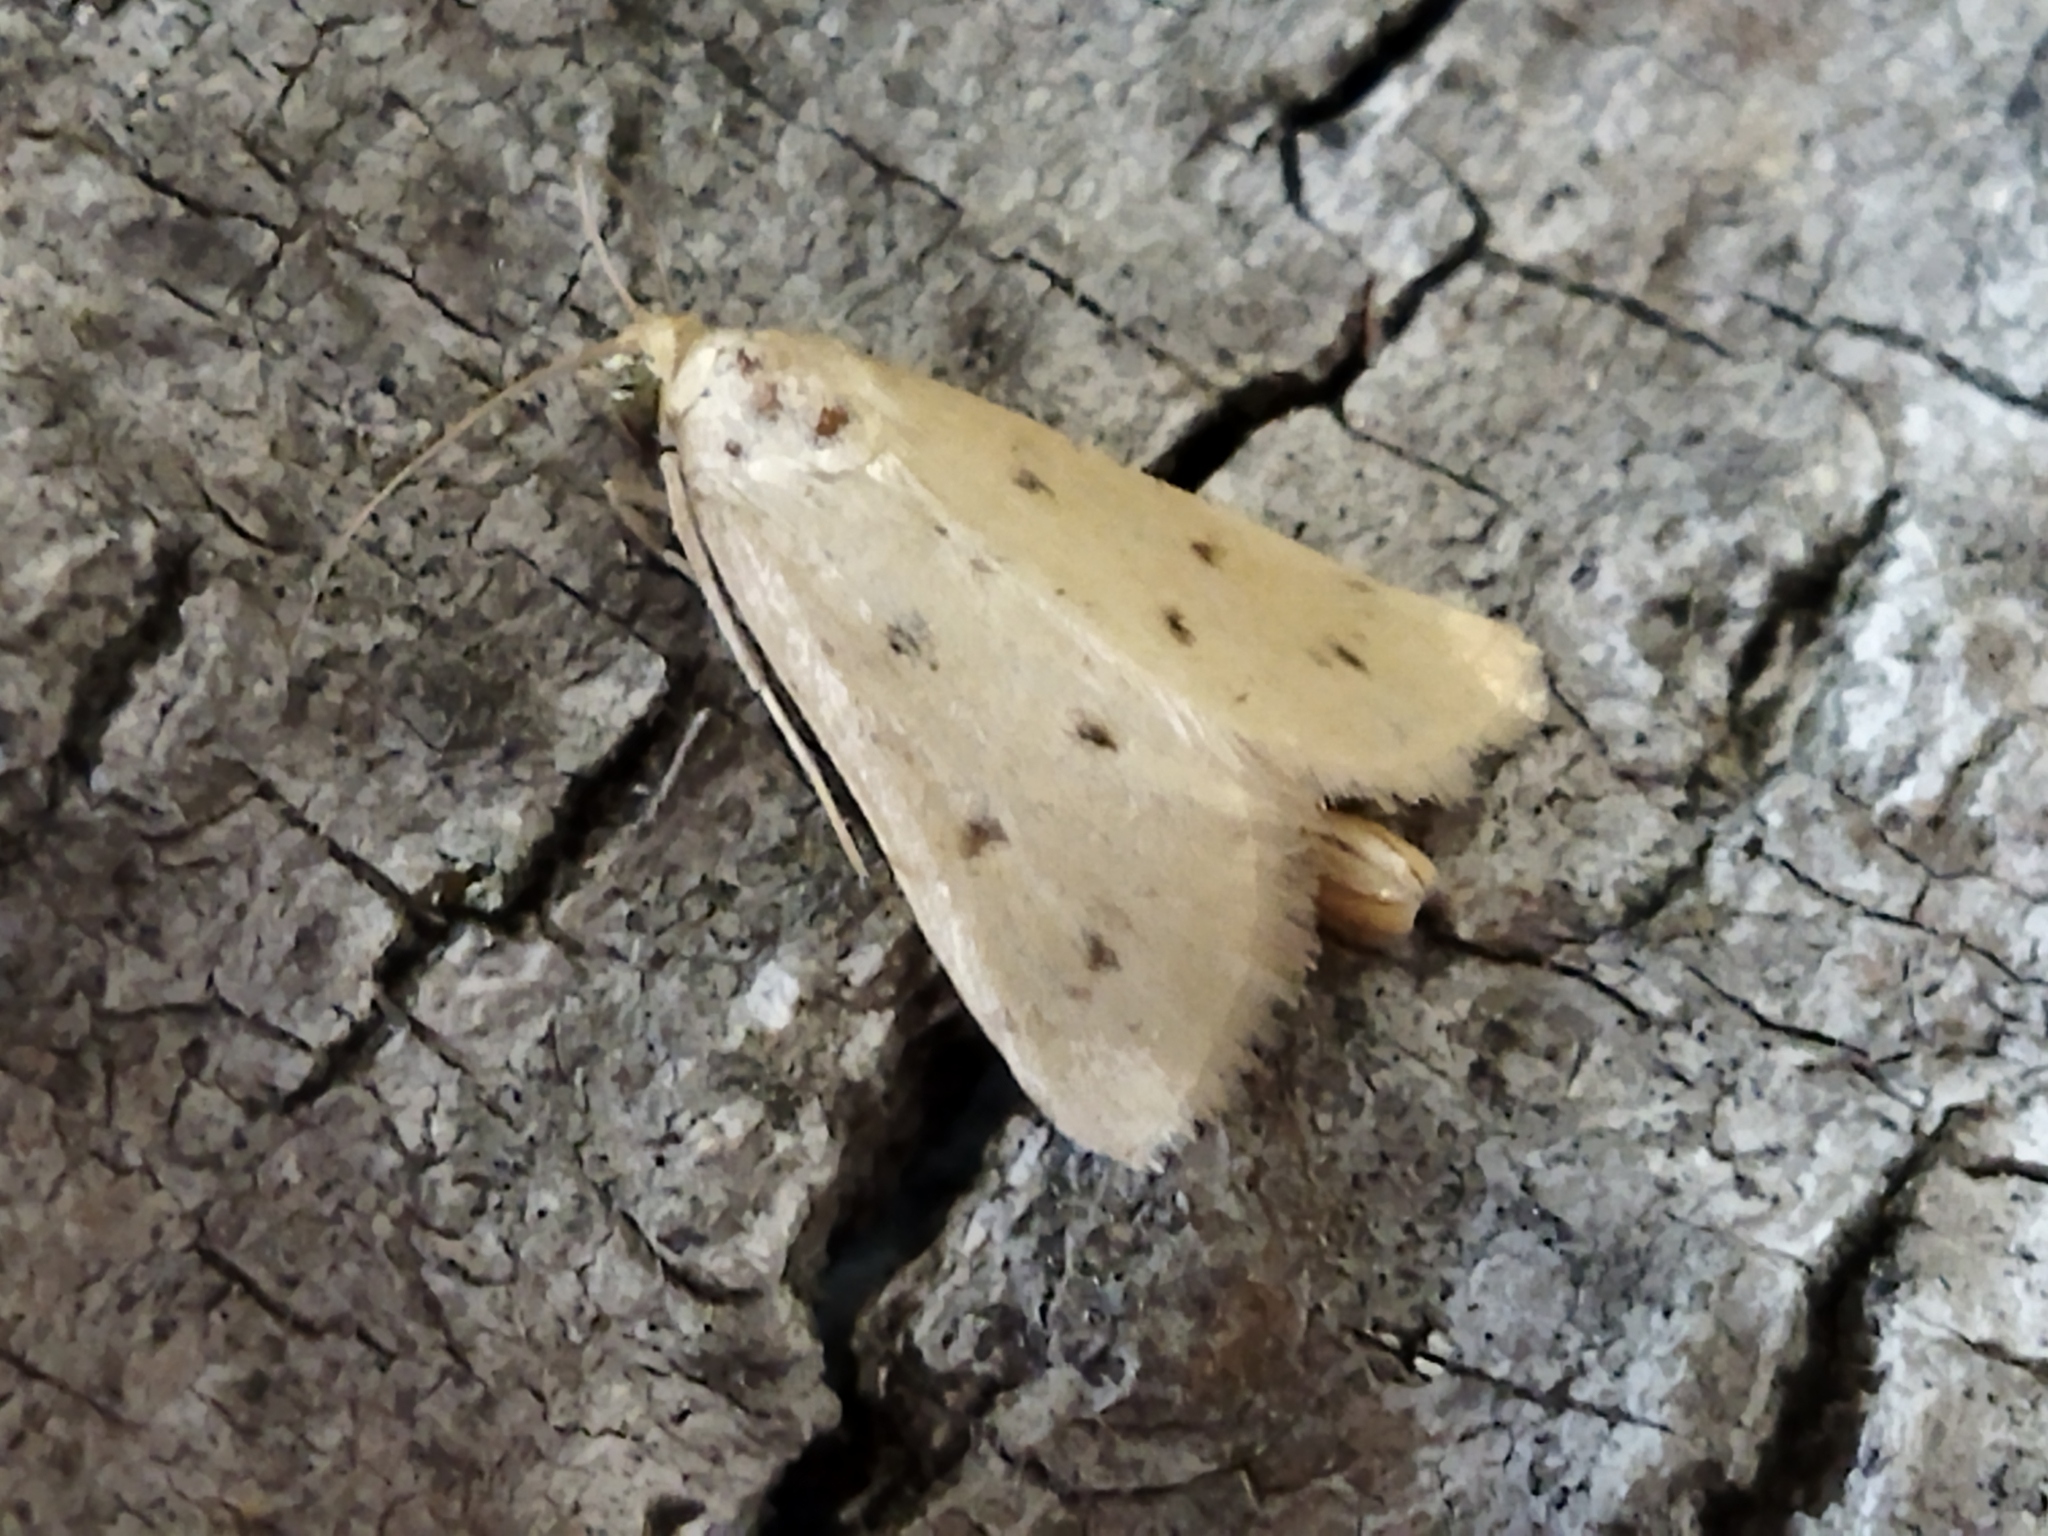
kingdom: Animalia
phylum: Arthropoda
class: Insecta
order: Lepidoptera
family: Crambidae
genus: Achyra
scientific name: Achyra nudalis
